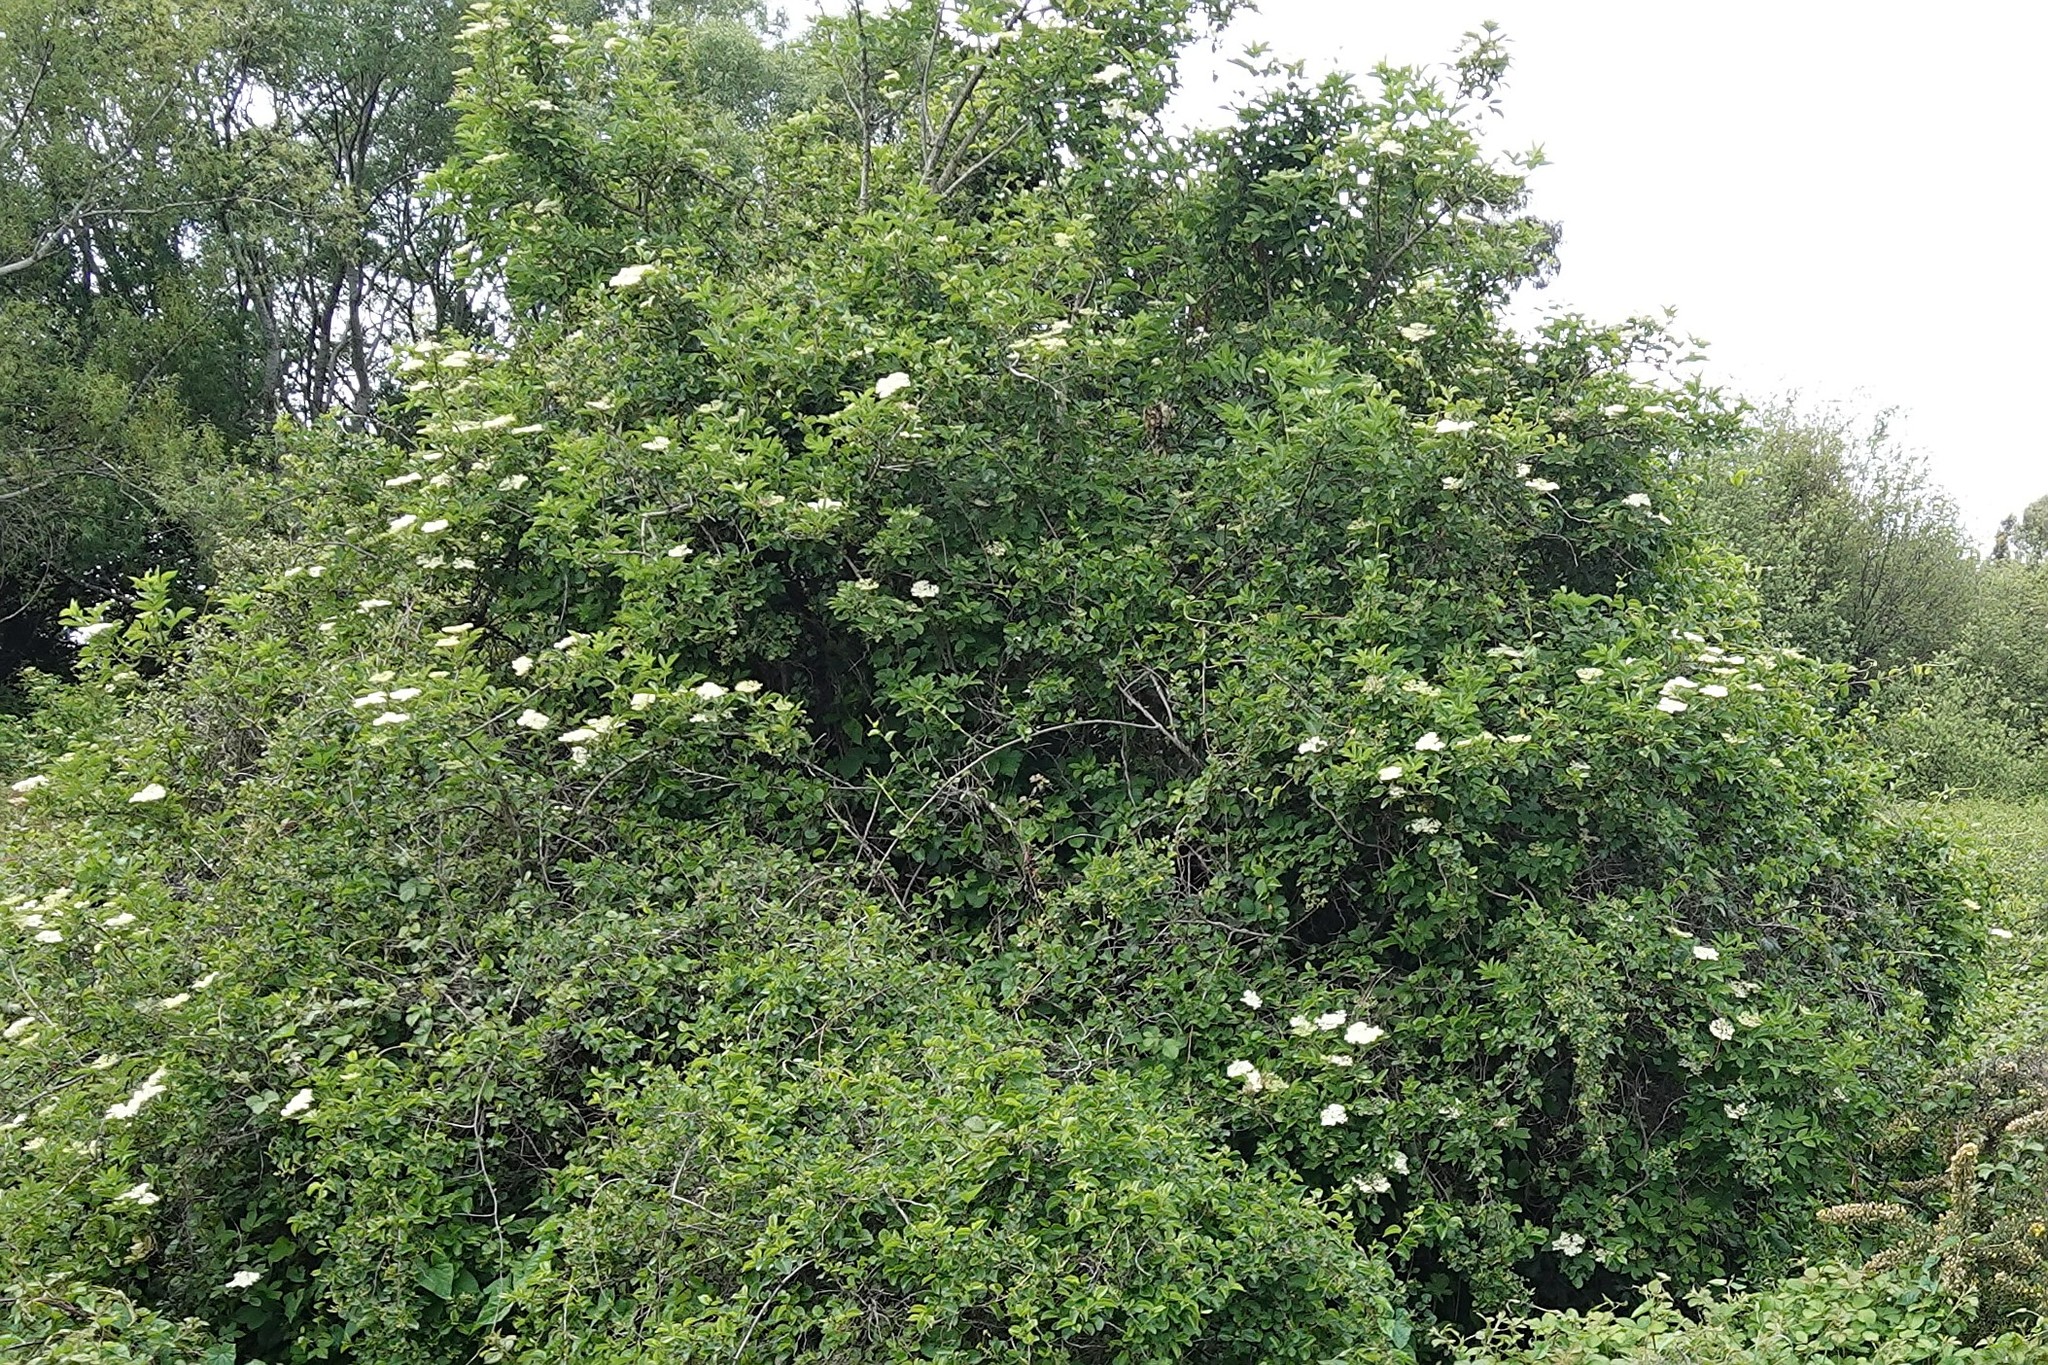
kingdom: Plantae
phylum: Tracheophyta
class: Magnoliopsida
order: Dipsacales
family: Viburnaceae
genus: Sambucus
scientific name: Sambucus nigra
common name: Elder
